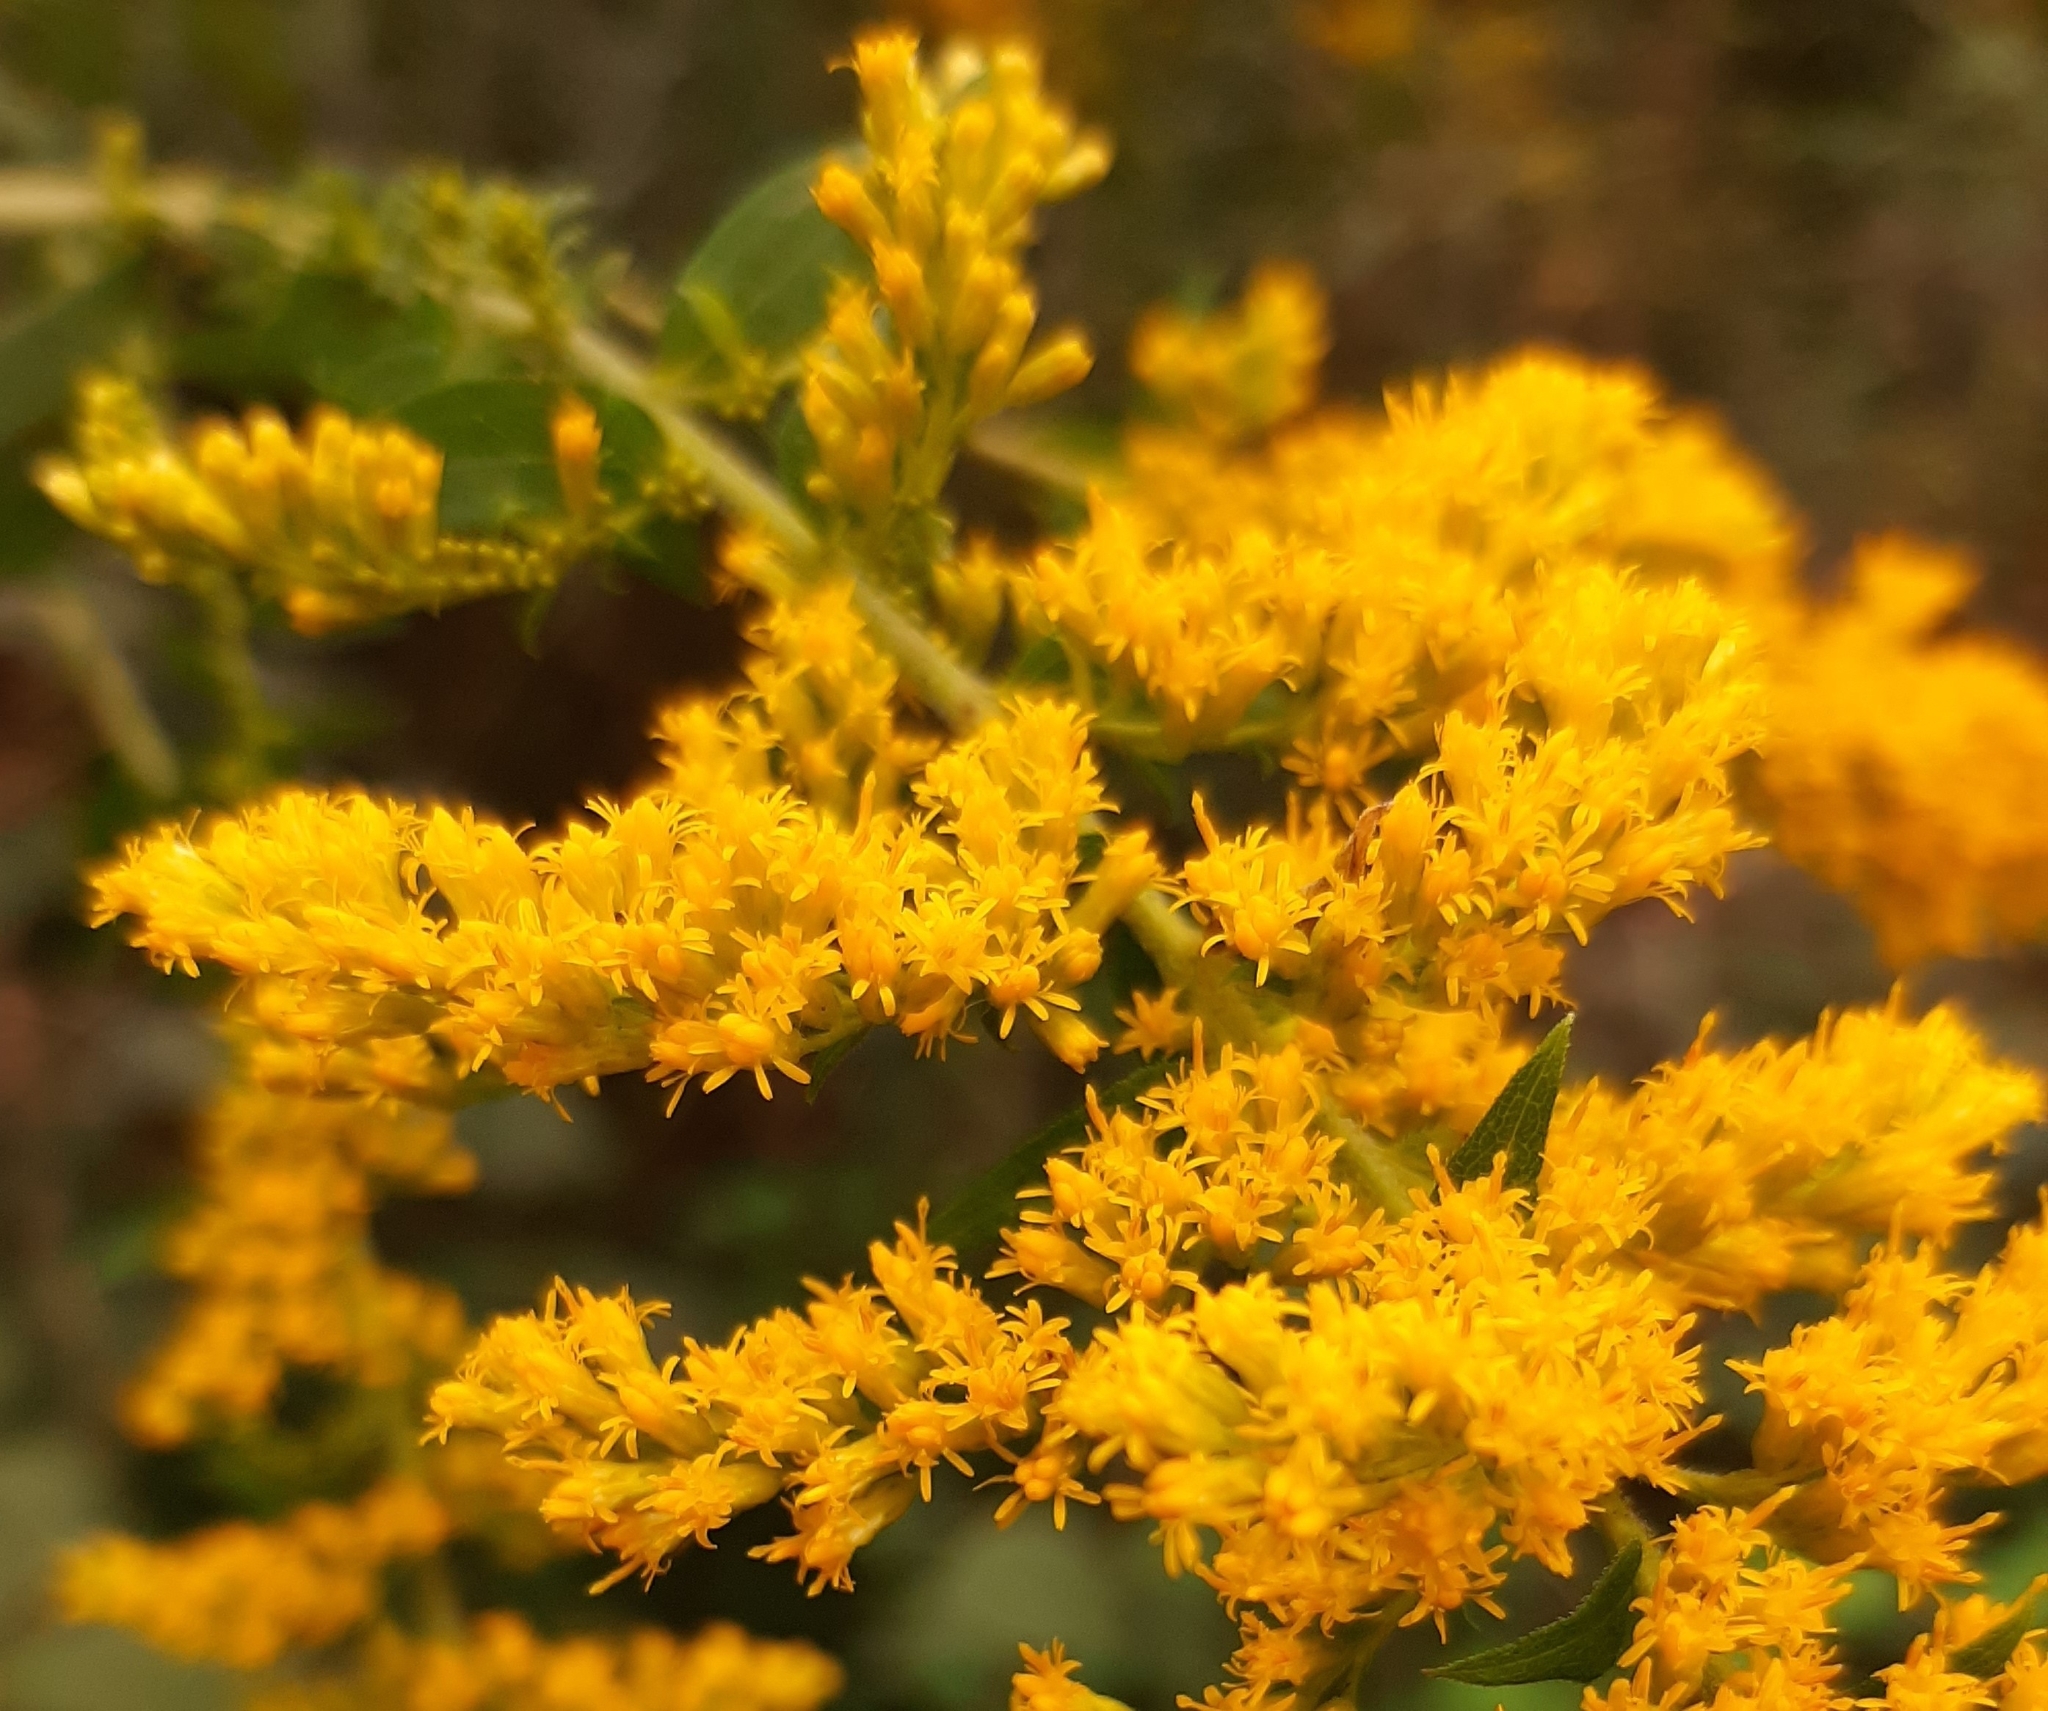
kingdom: Plantae
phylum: Tracheophyta
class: Magnoliopsida
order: Asterales
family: Asteraceae
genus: Solidago
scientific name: Solidago altissima
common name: Late goldenrod
